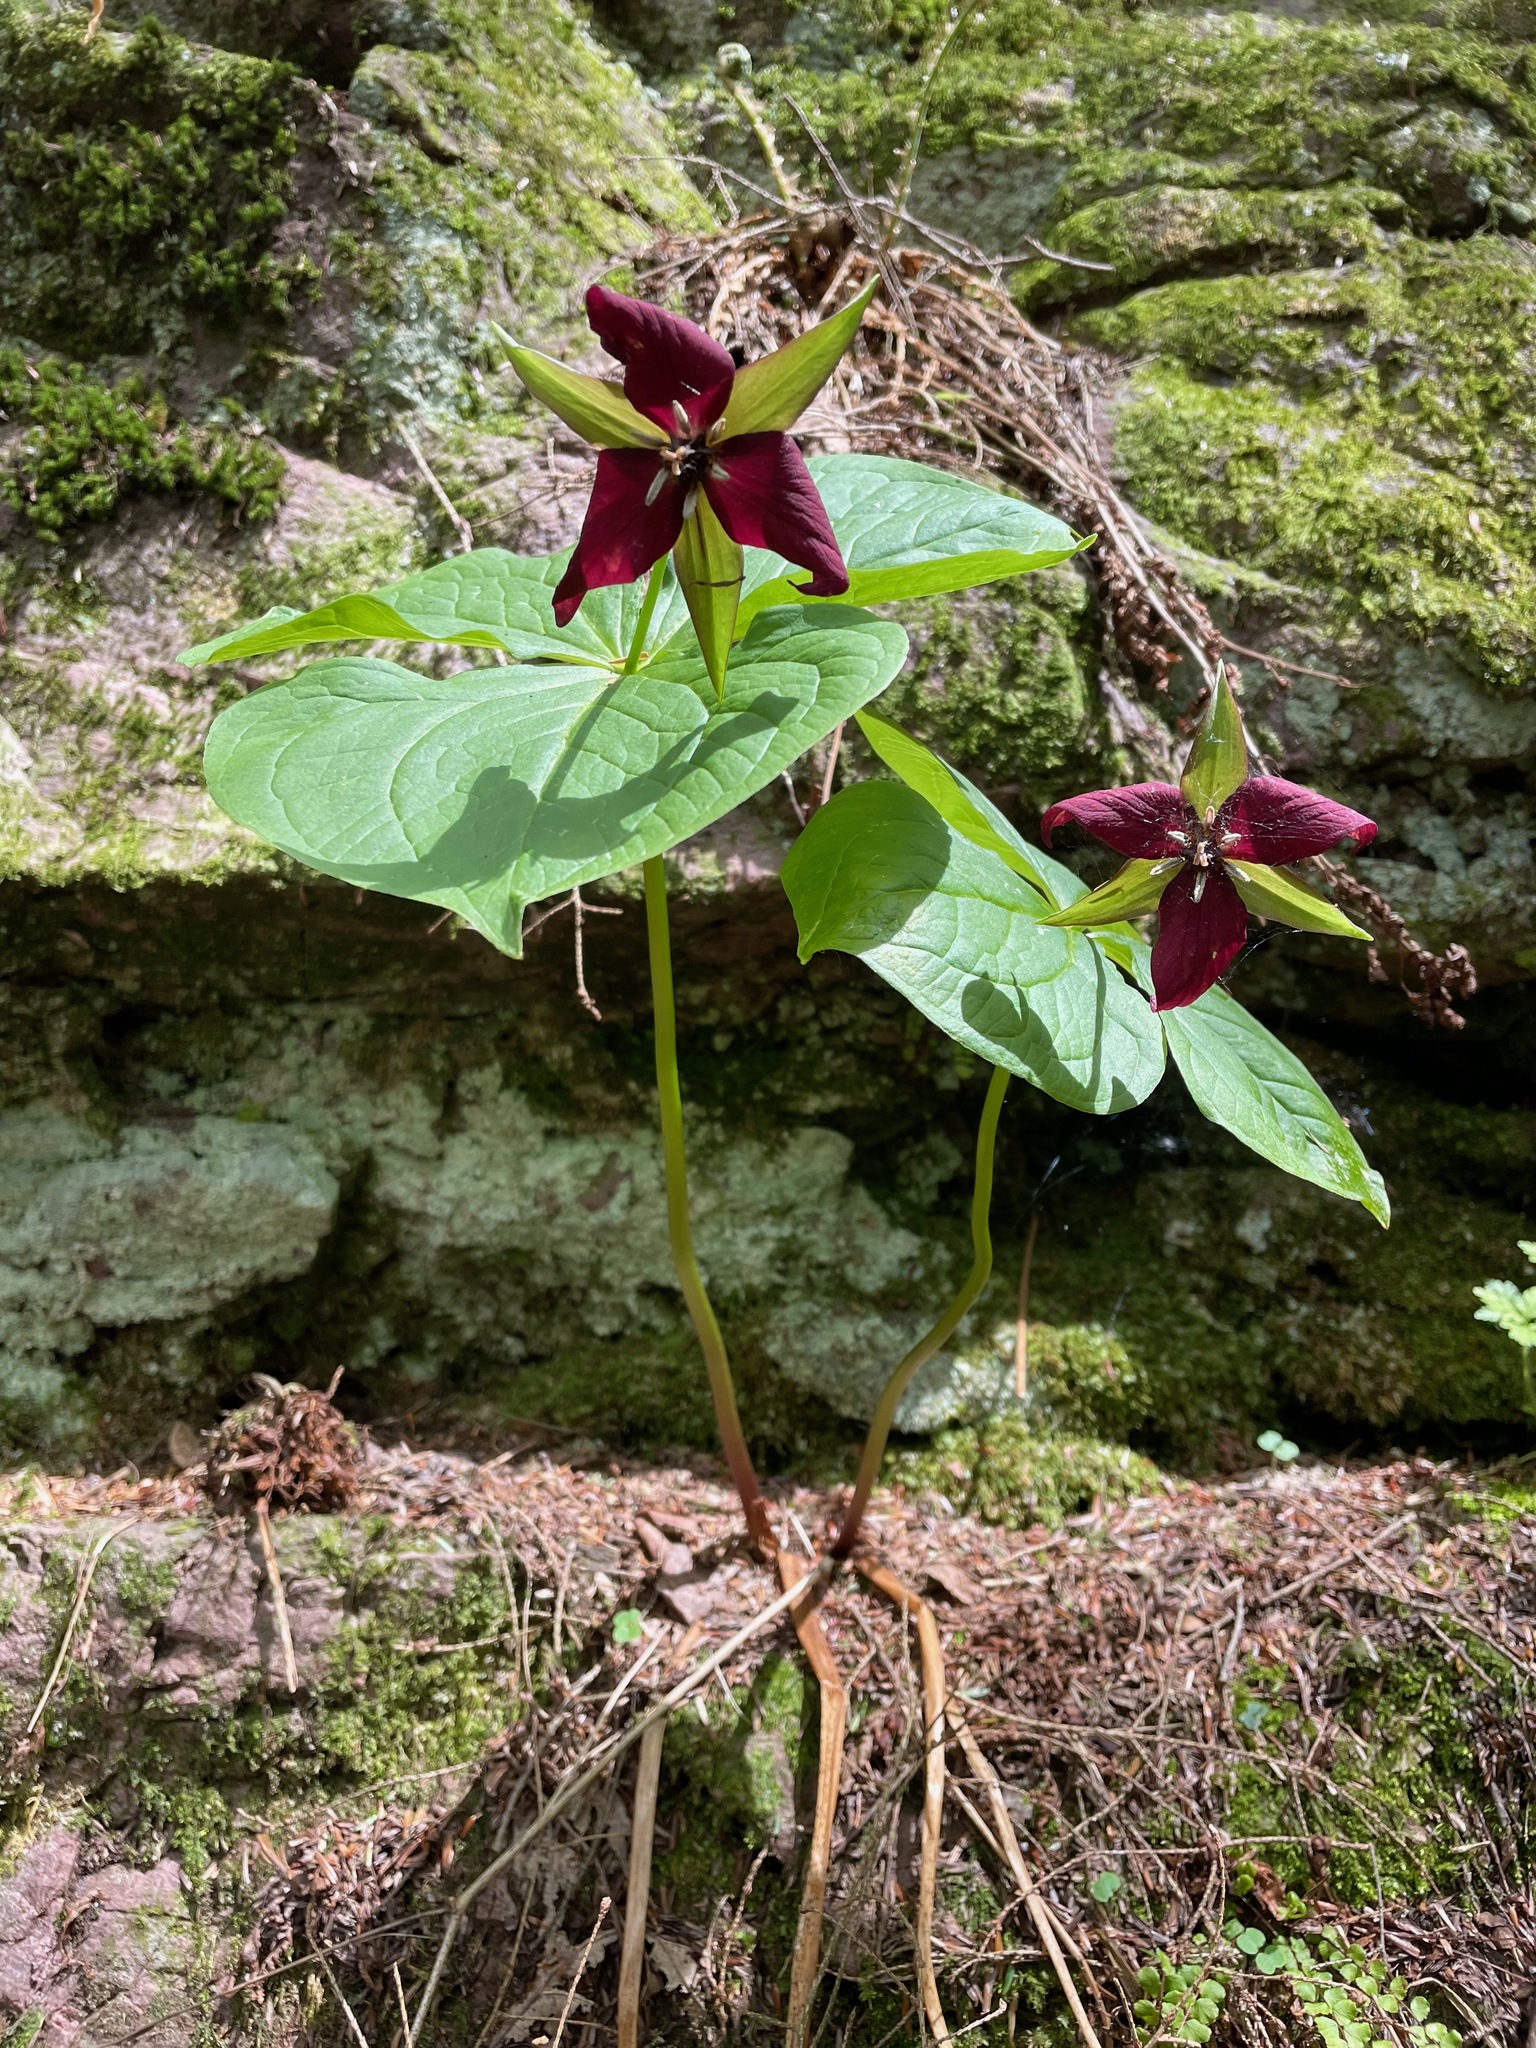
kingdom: Plantae
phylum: Tracheophyta
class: Liliopsida
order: Liliales
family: Melanthiaceae
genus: Trillium
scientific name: Trillium erectum
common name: Purple trillium
